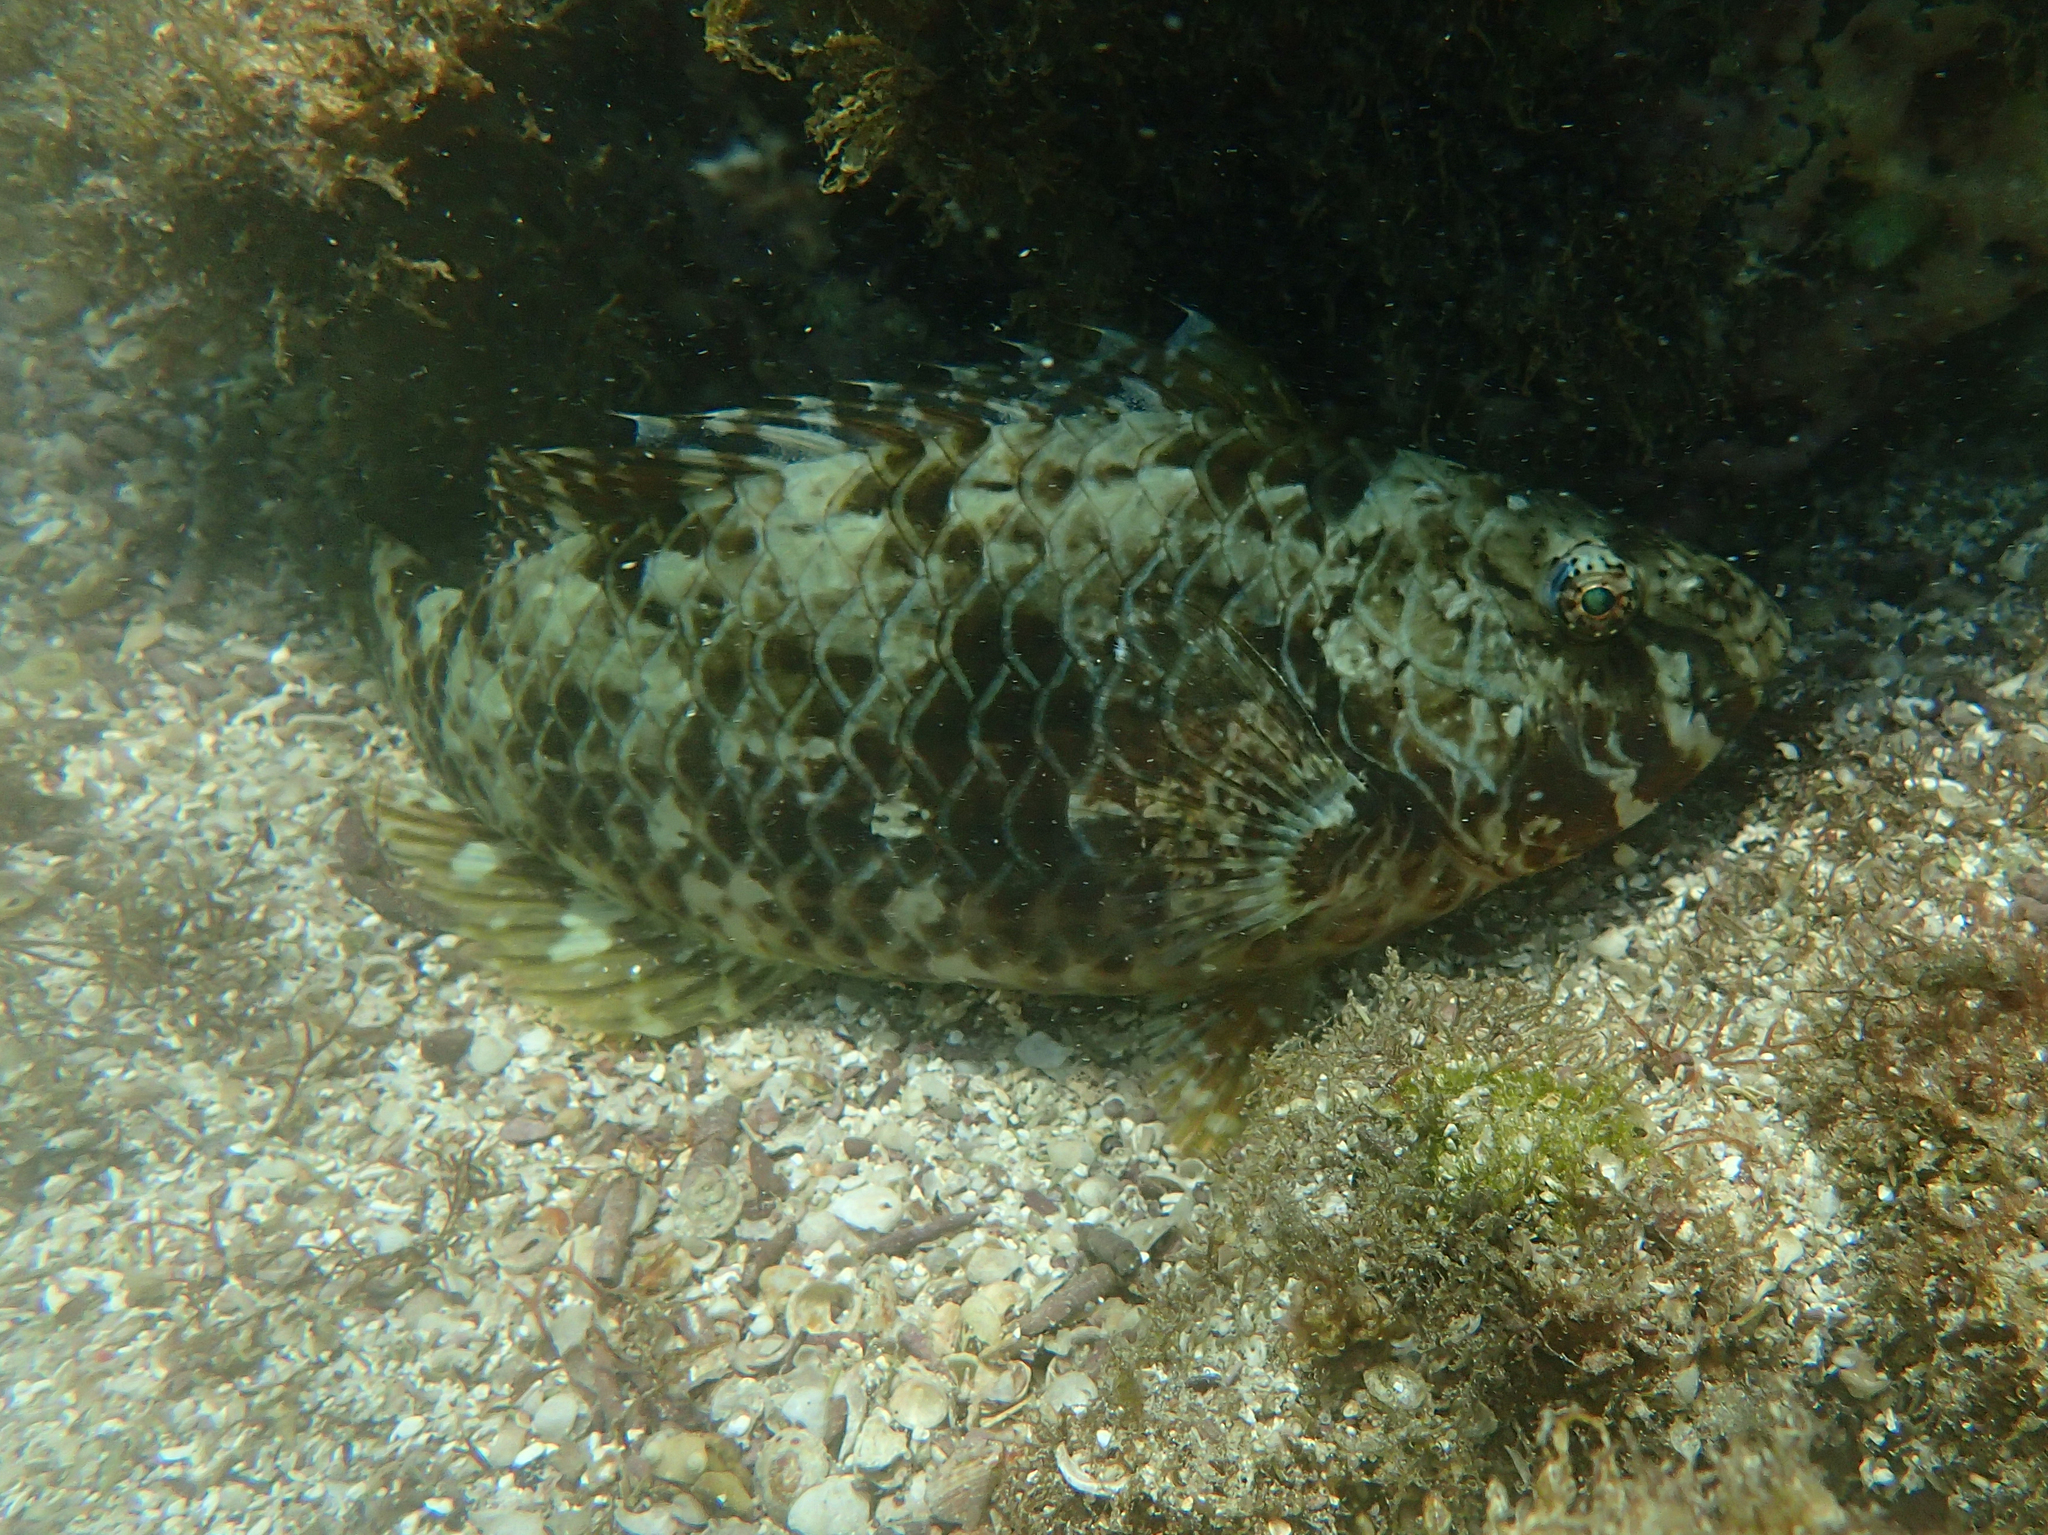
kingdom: Animalia
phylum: Chordata
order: Perciformes
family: Scaridae
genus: Nicholsina
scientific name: Nicholsina denticulata
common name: Loosetooth parrotfish
